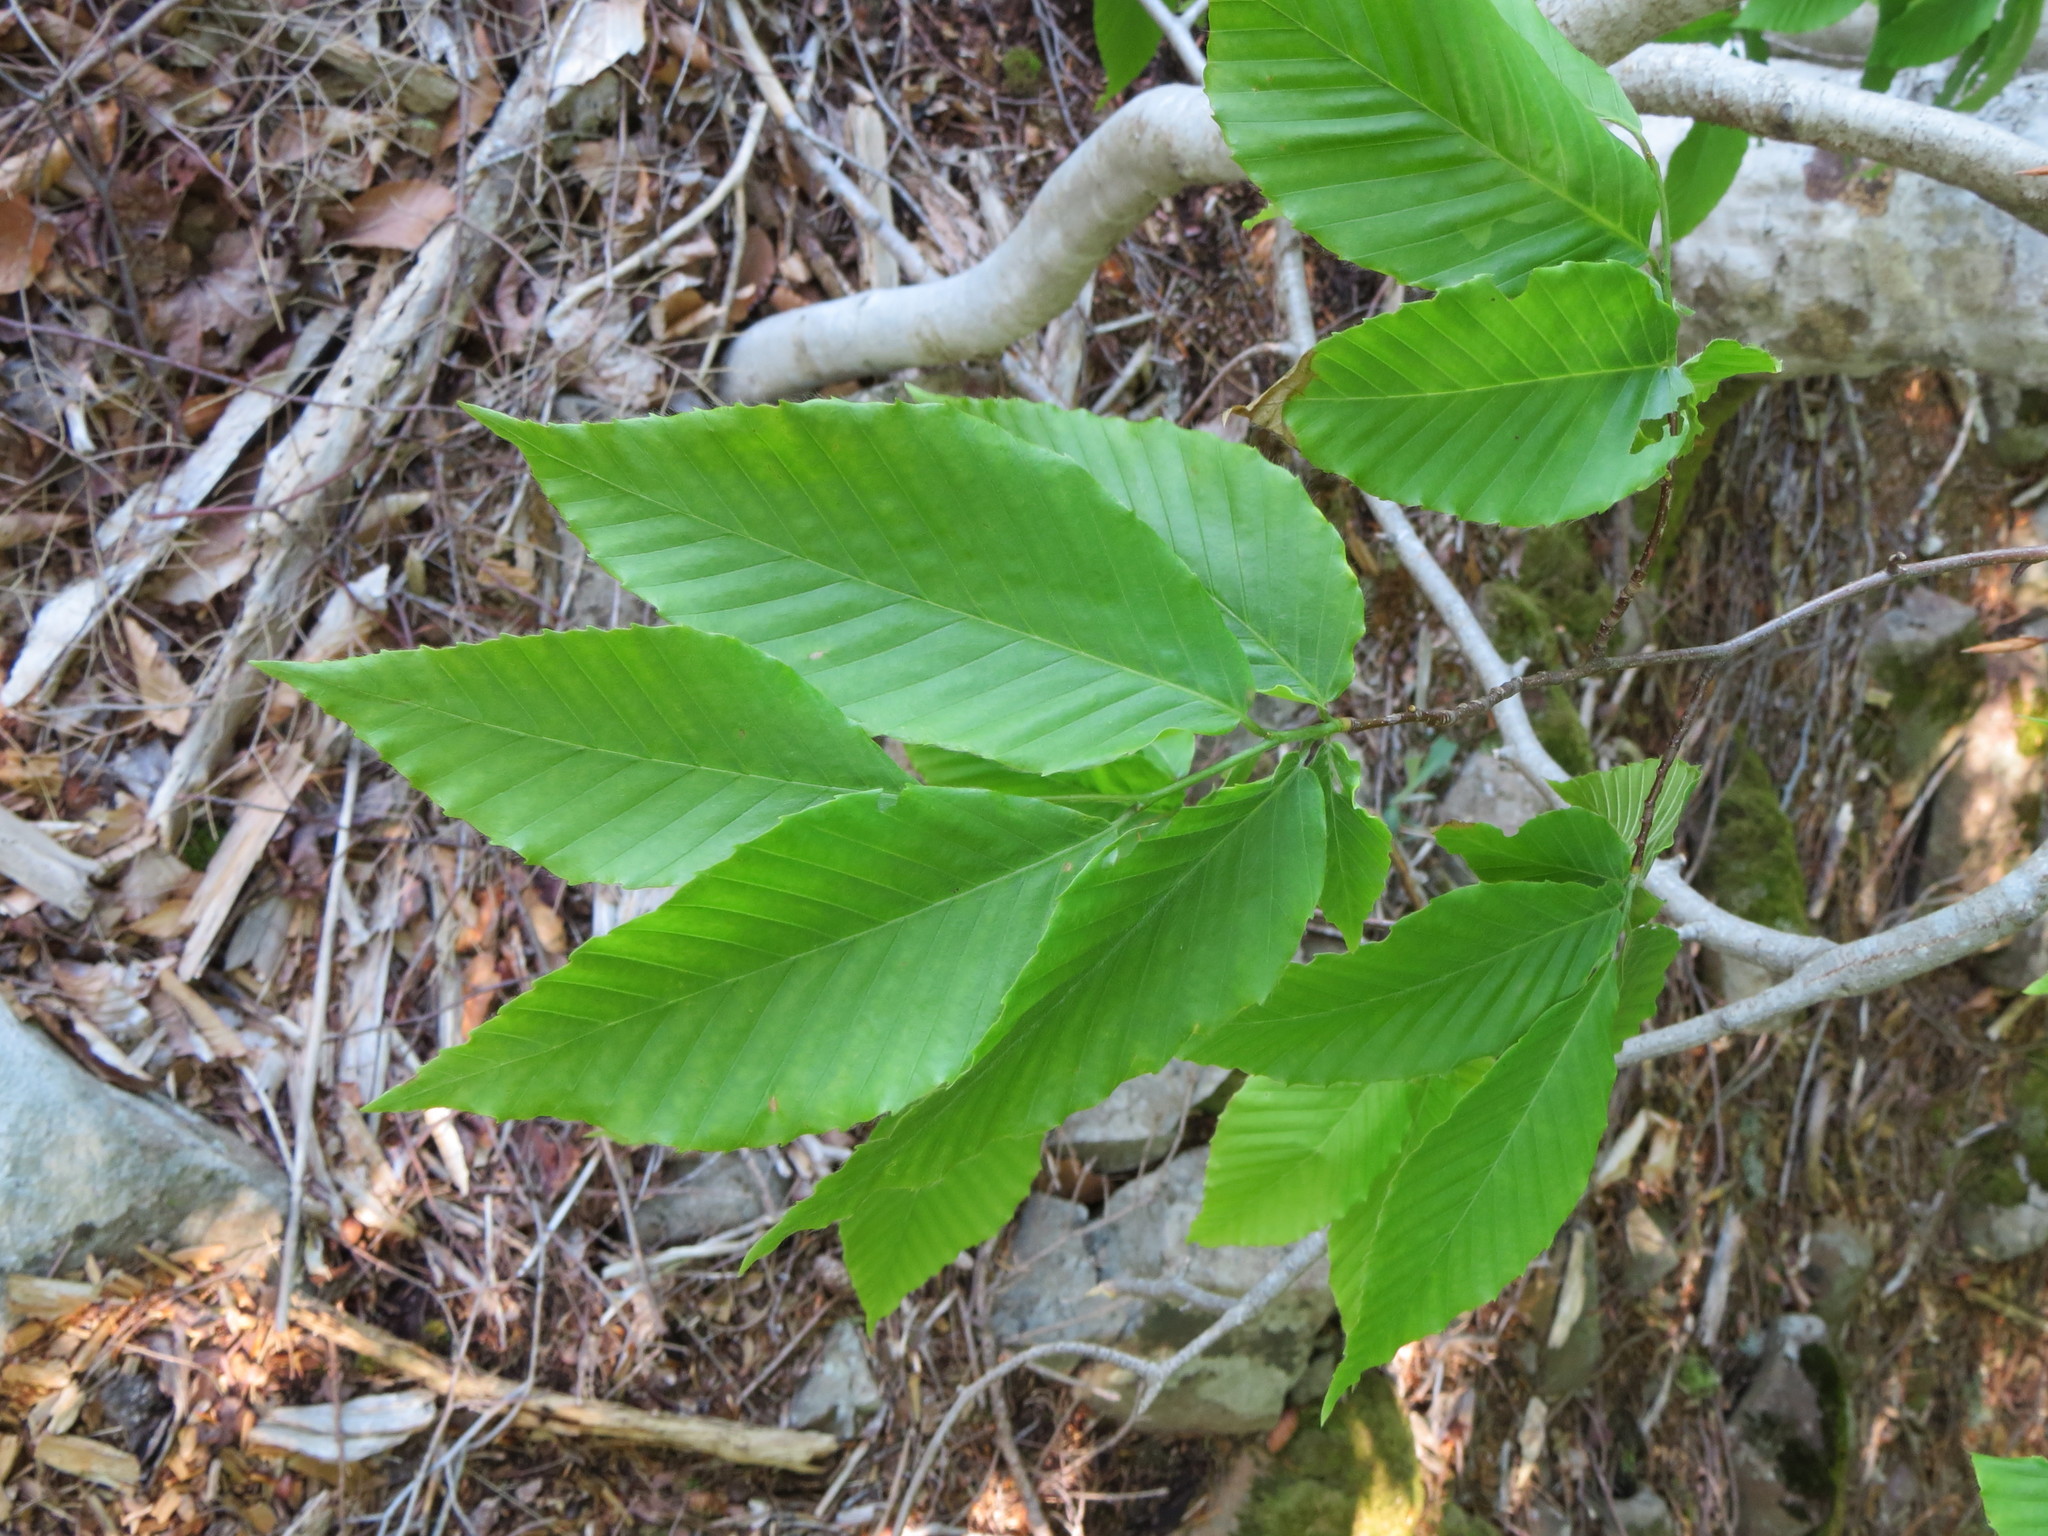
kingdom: Plantae
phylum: Tracheophyta
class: Magnoliopsida
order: Fagales
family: Fagaceae
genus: Fagus
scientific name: Fagus grandifolia
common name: American beech
